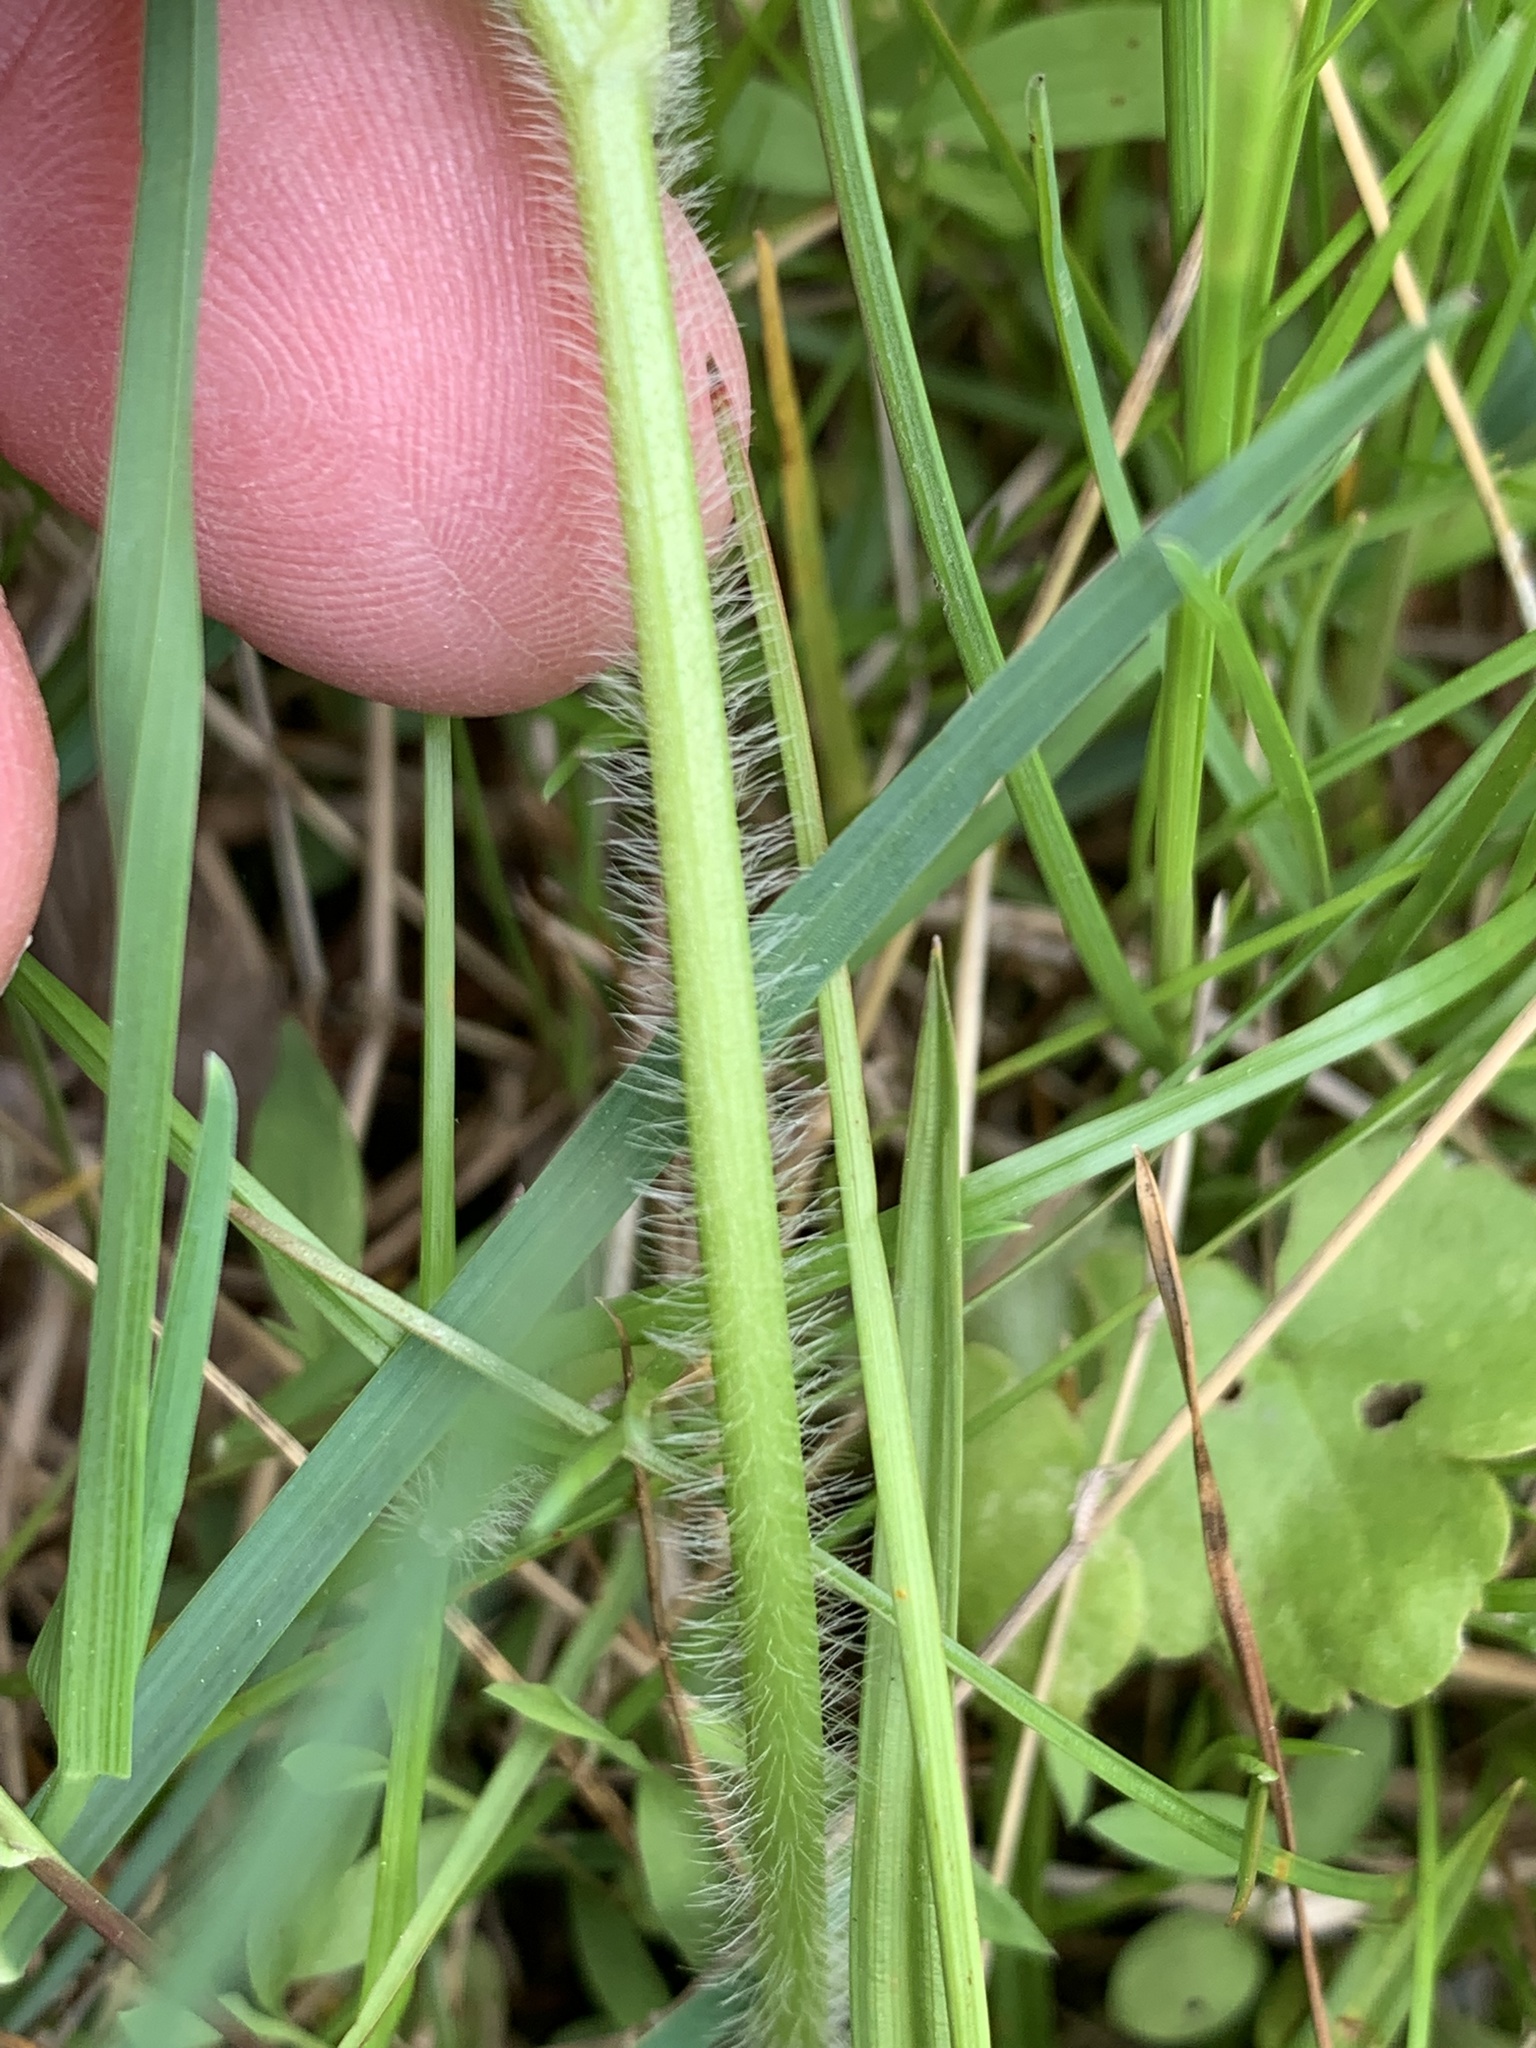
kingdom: Plantae
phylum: Tracheophyta
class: Magnoliopsida
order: Ranunculales
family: Ranunculaceae
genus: Ranunculus
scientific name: Ranunculus recurvatus
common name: Blisterwort
